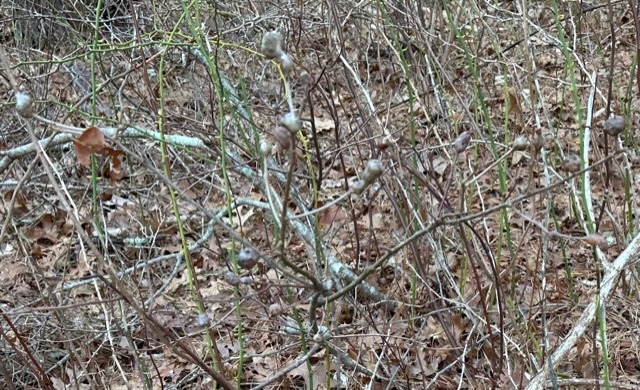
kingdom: Animalia
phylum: Arthropoda
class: Insecta
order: Hymenoptera
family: Cynipidae
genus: Zapatella
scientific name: Zapatella quercusphellos
